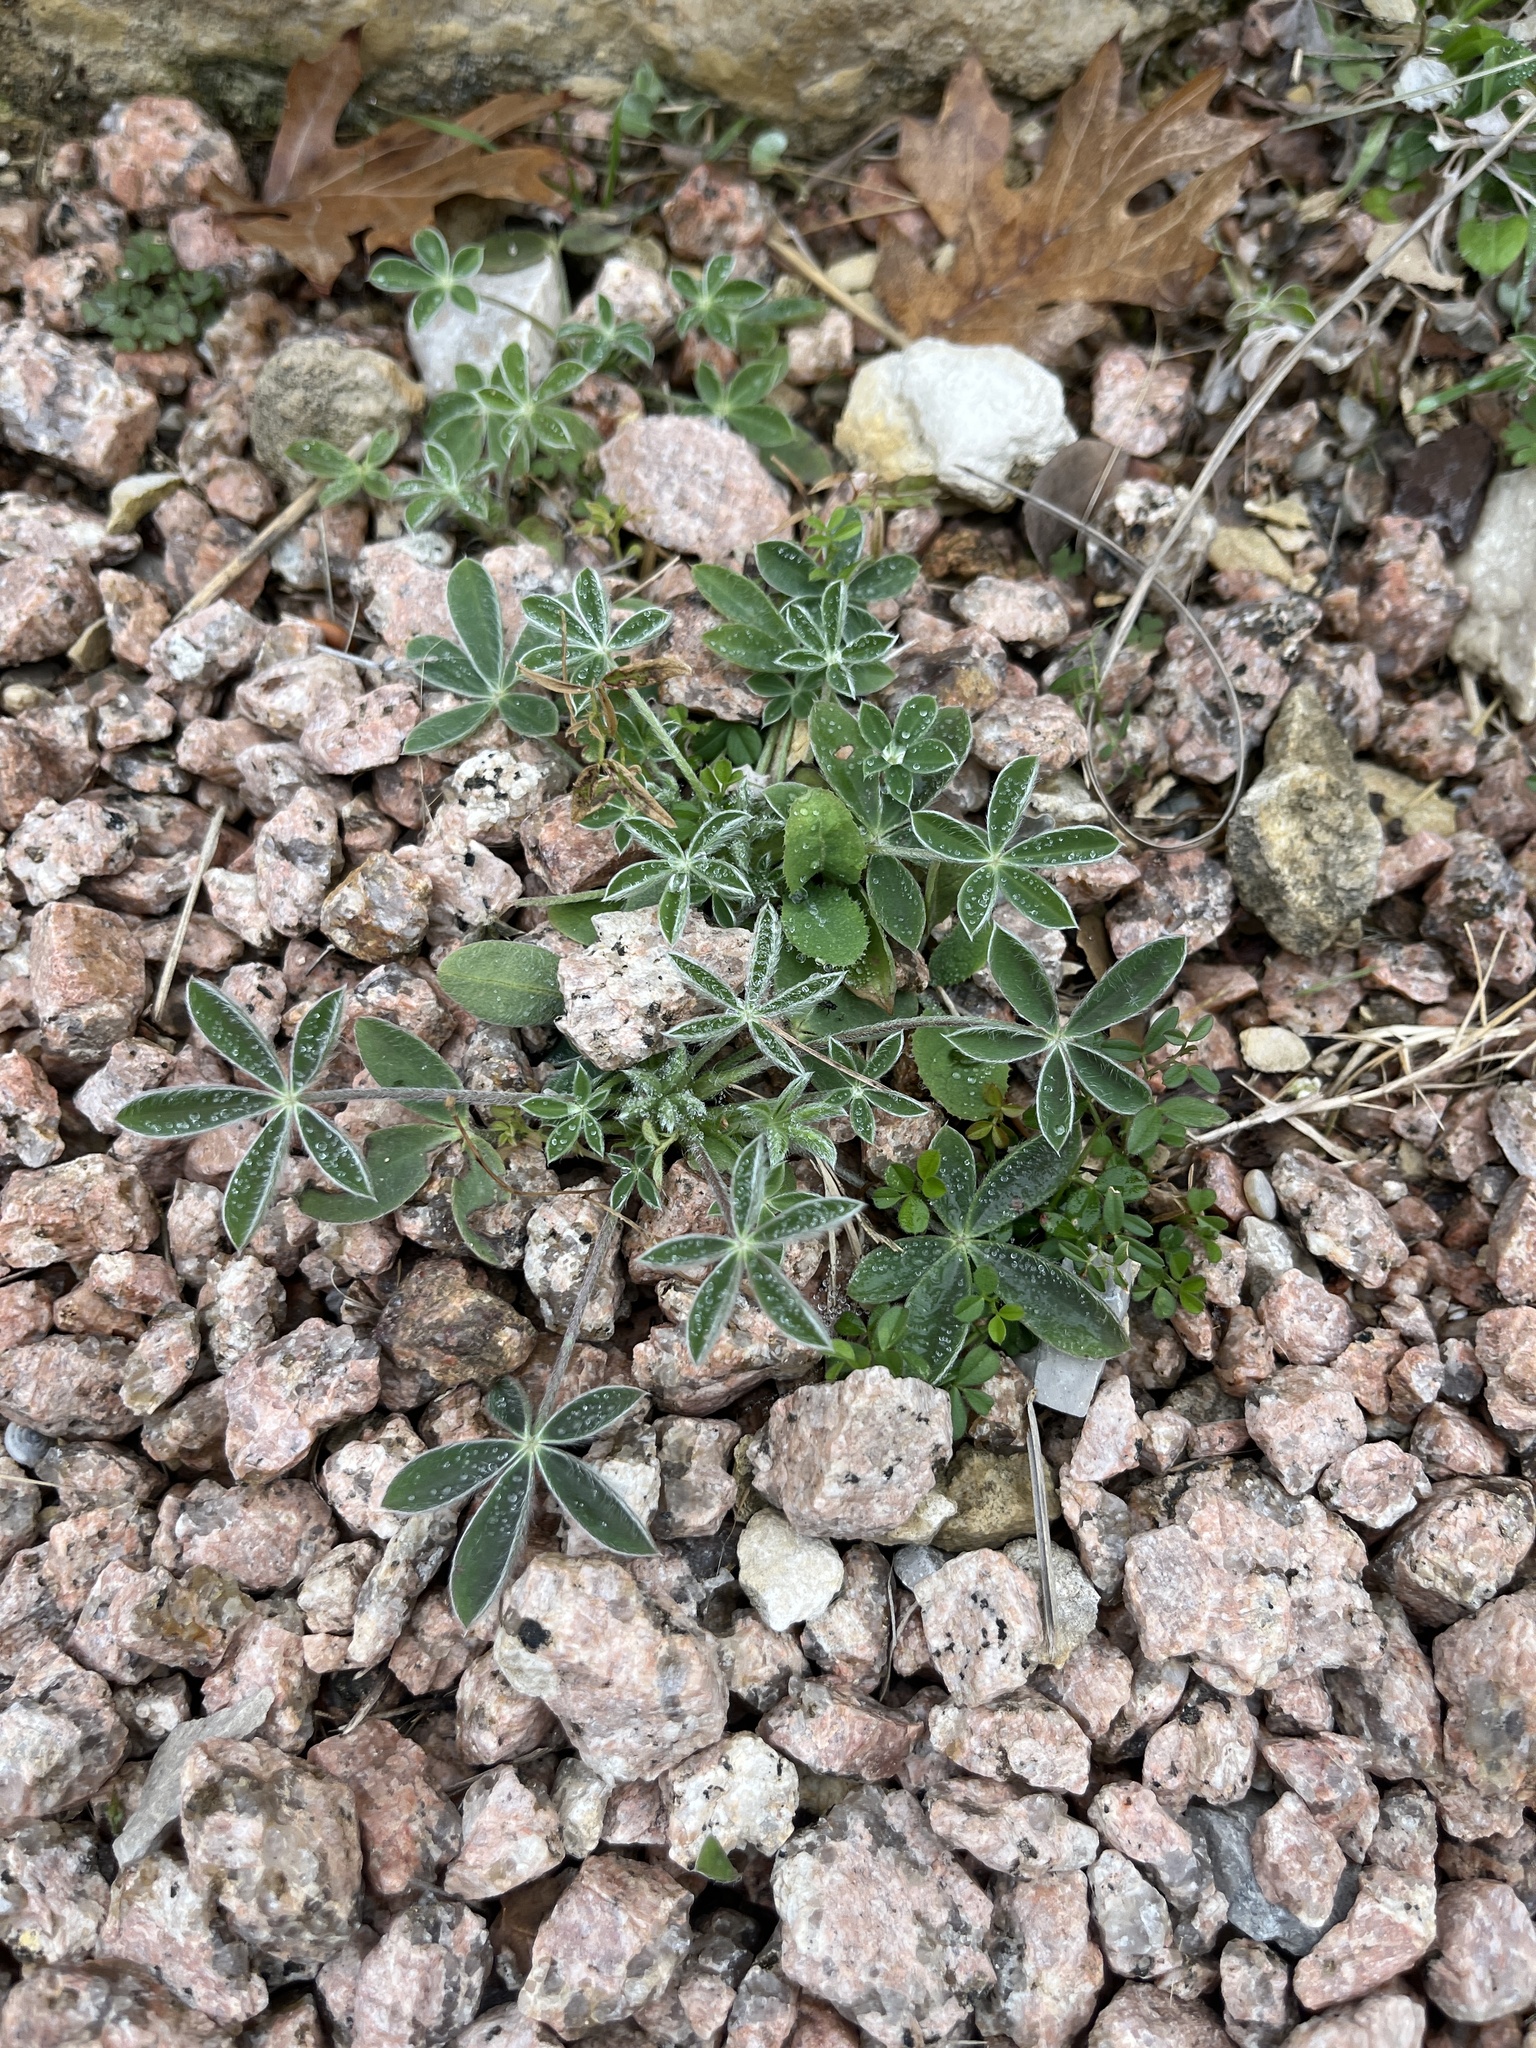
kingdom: Plantae
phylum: Tracheophyta
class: Magnoliopsida
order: Fabales
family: Fabaceae
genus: Lupinus
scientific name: Lupinus texensis
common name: Texas bluebonnet
